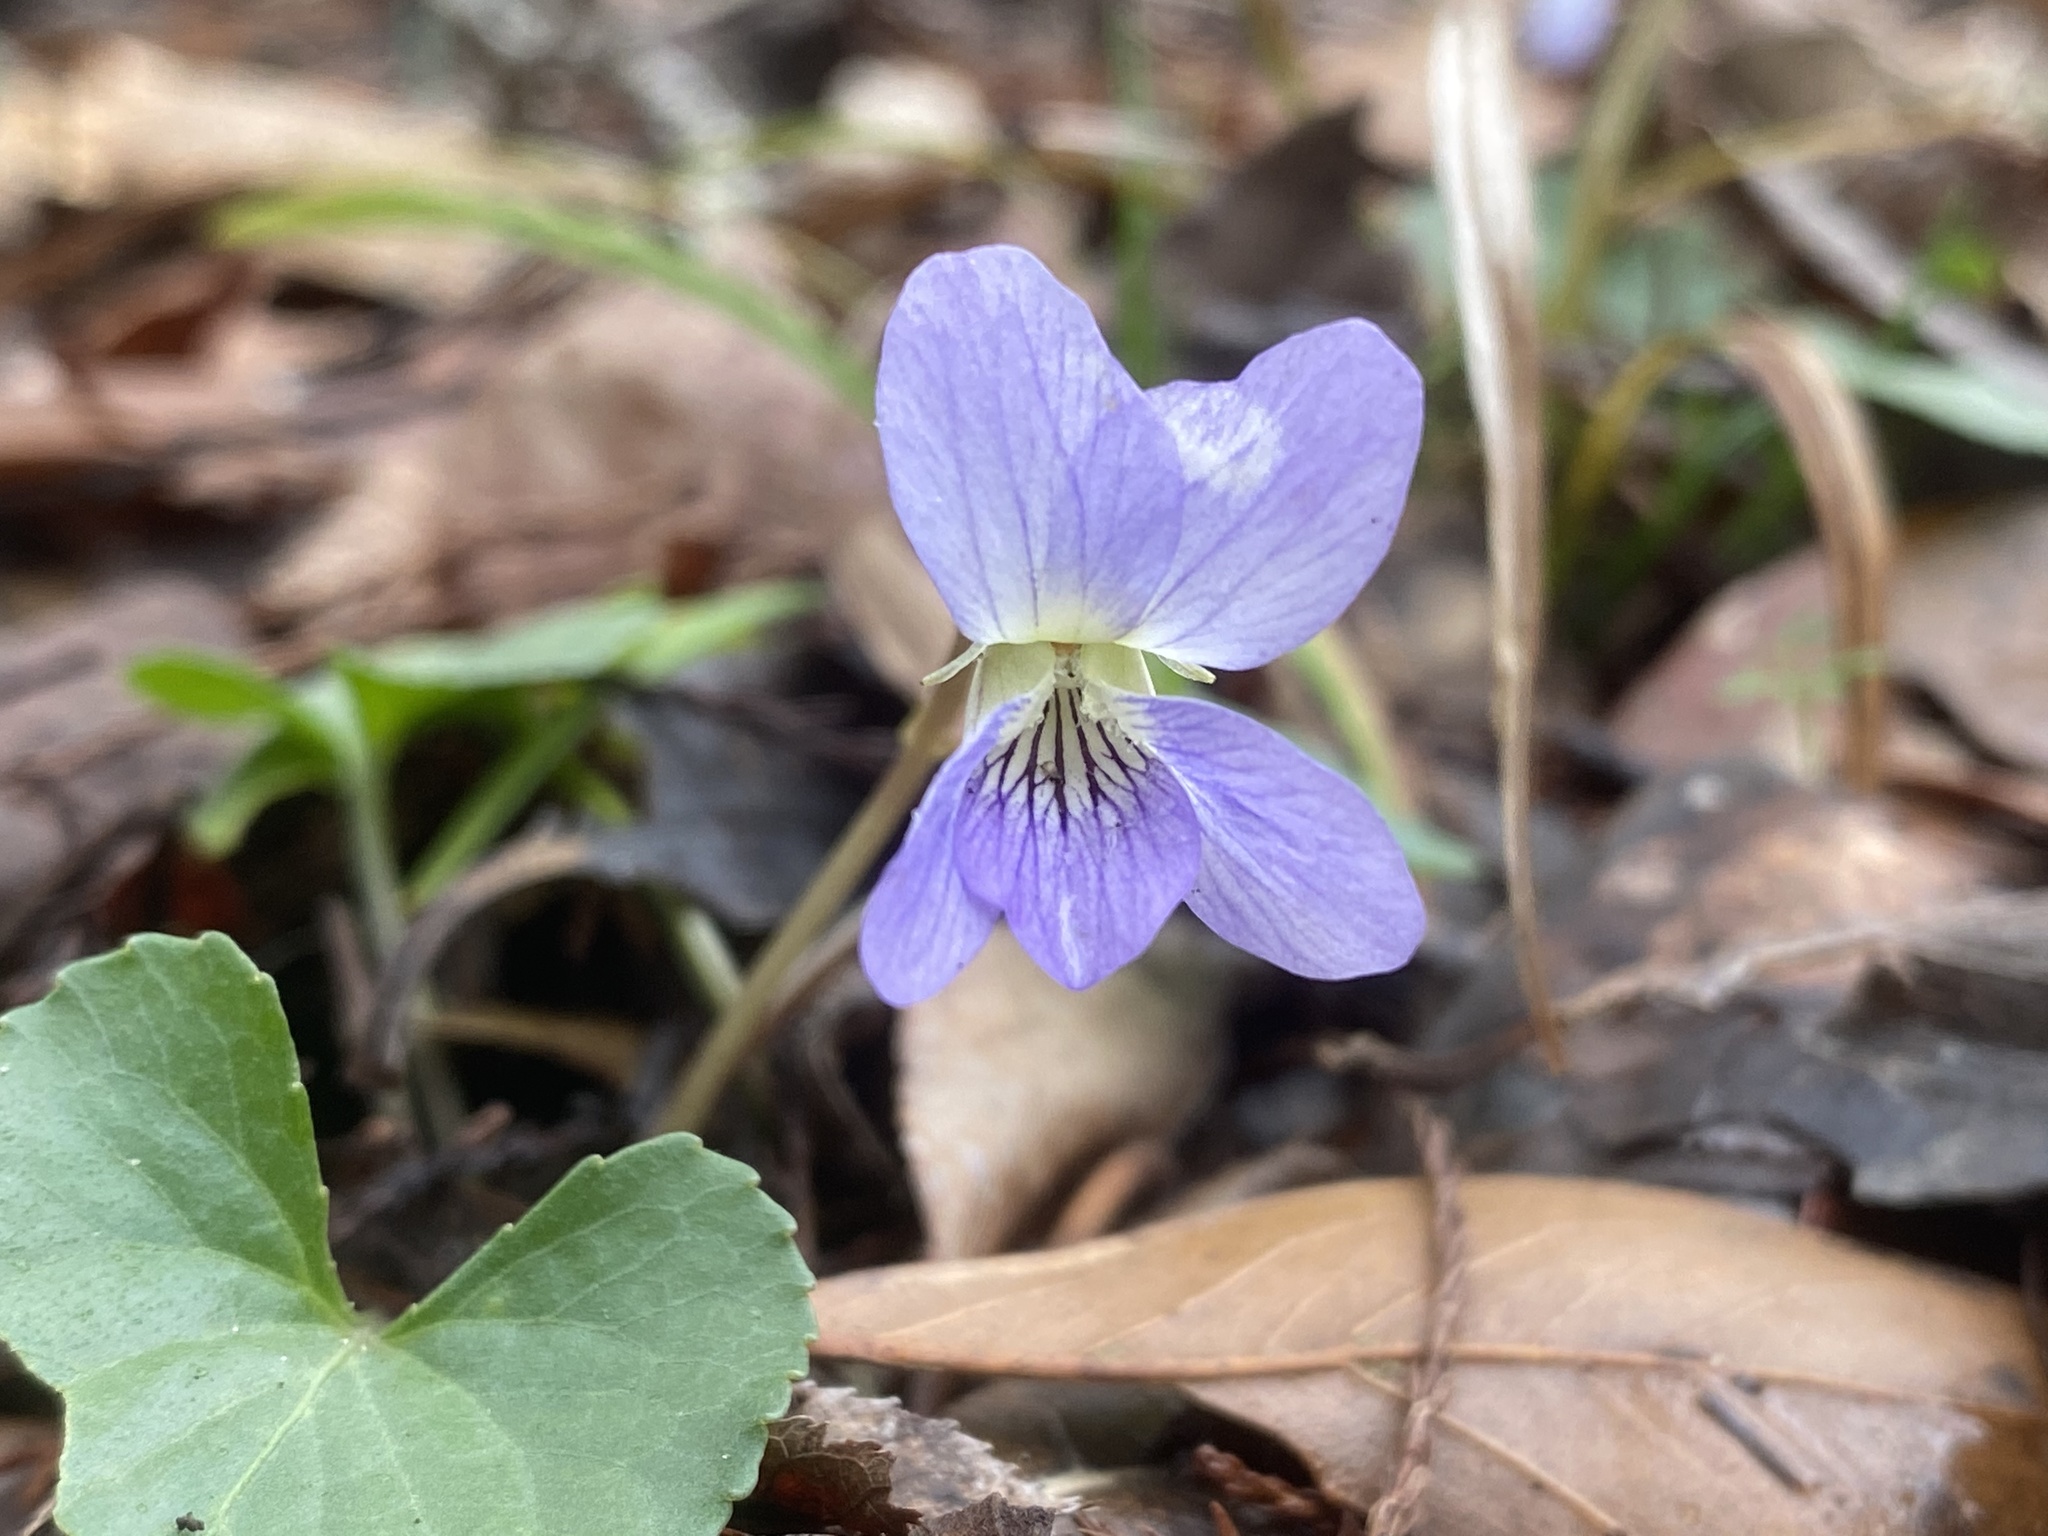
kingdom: Plantae
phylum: Tracheophyta
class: Magnoliopsida
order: Malpighiales
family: Violaceae
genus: Viola
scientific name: Viola sororia
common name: Dooryard violet
